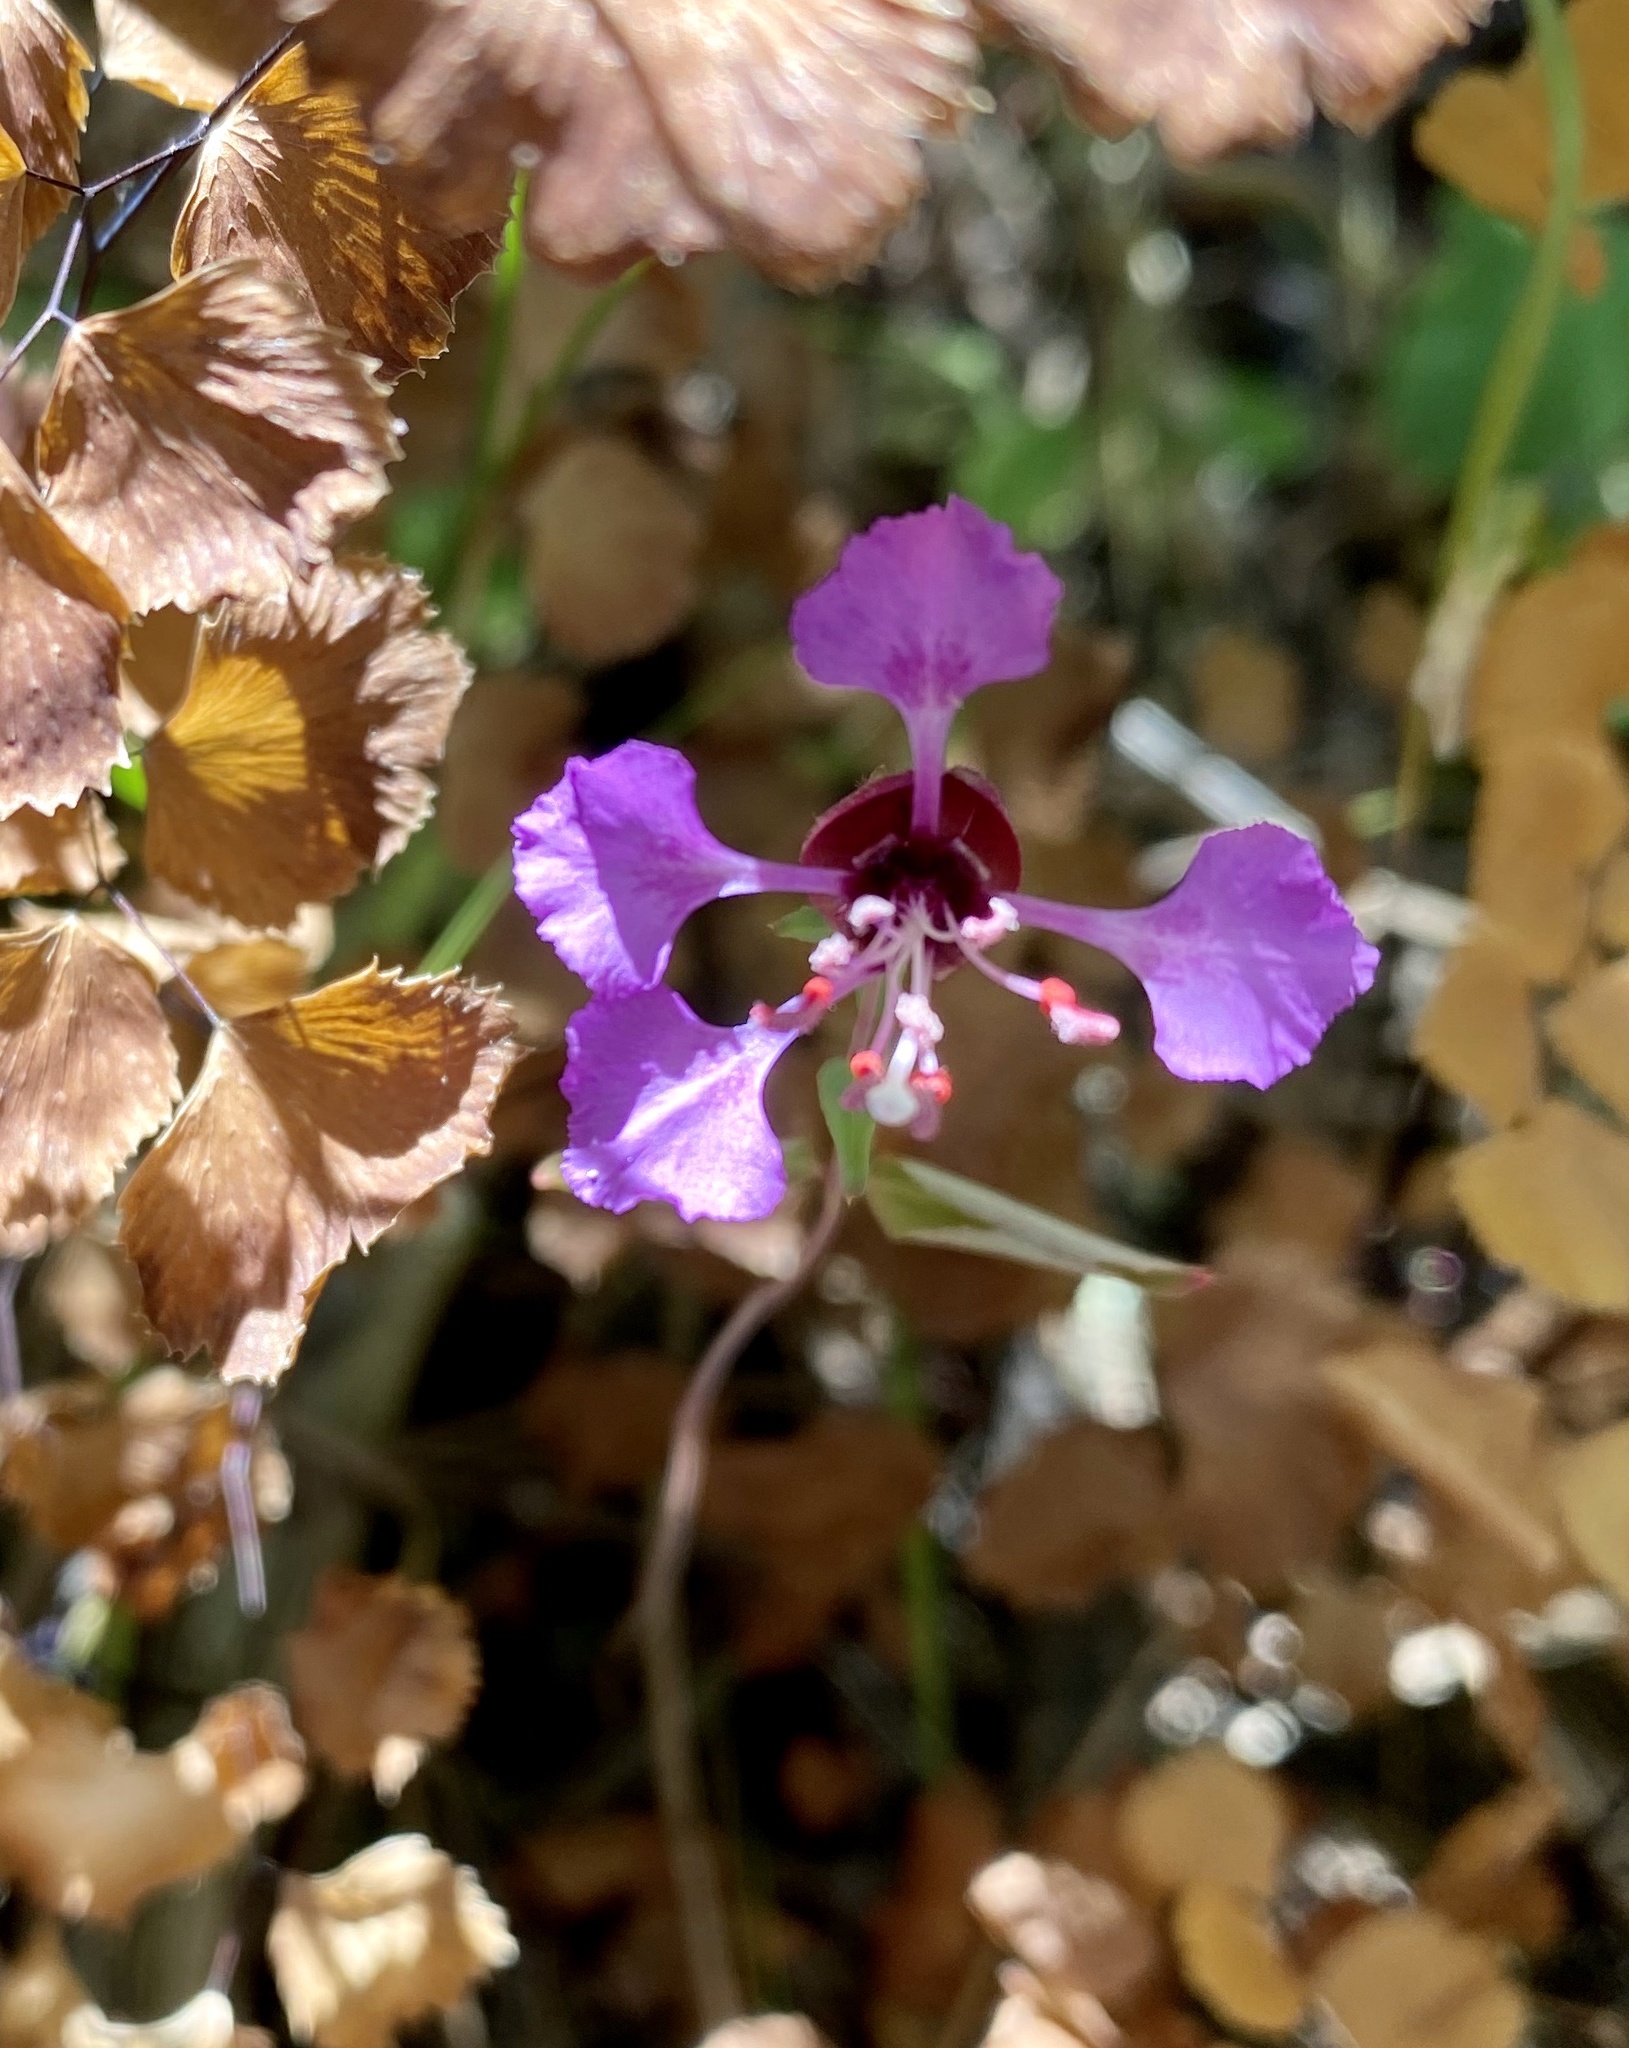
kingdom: Plantae
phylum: Tracheophyta
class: Magnoliopsida
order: Myrtales
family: Onagraceae
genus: Clarkia
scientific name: Clarkia unguiculata
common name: Clarkia
